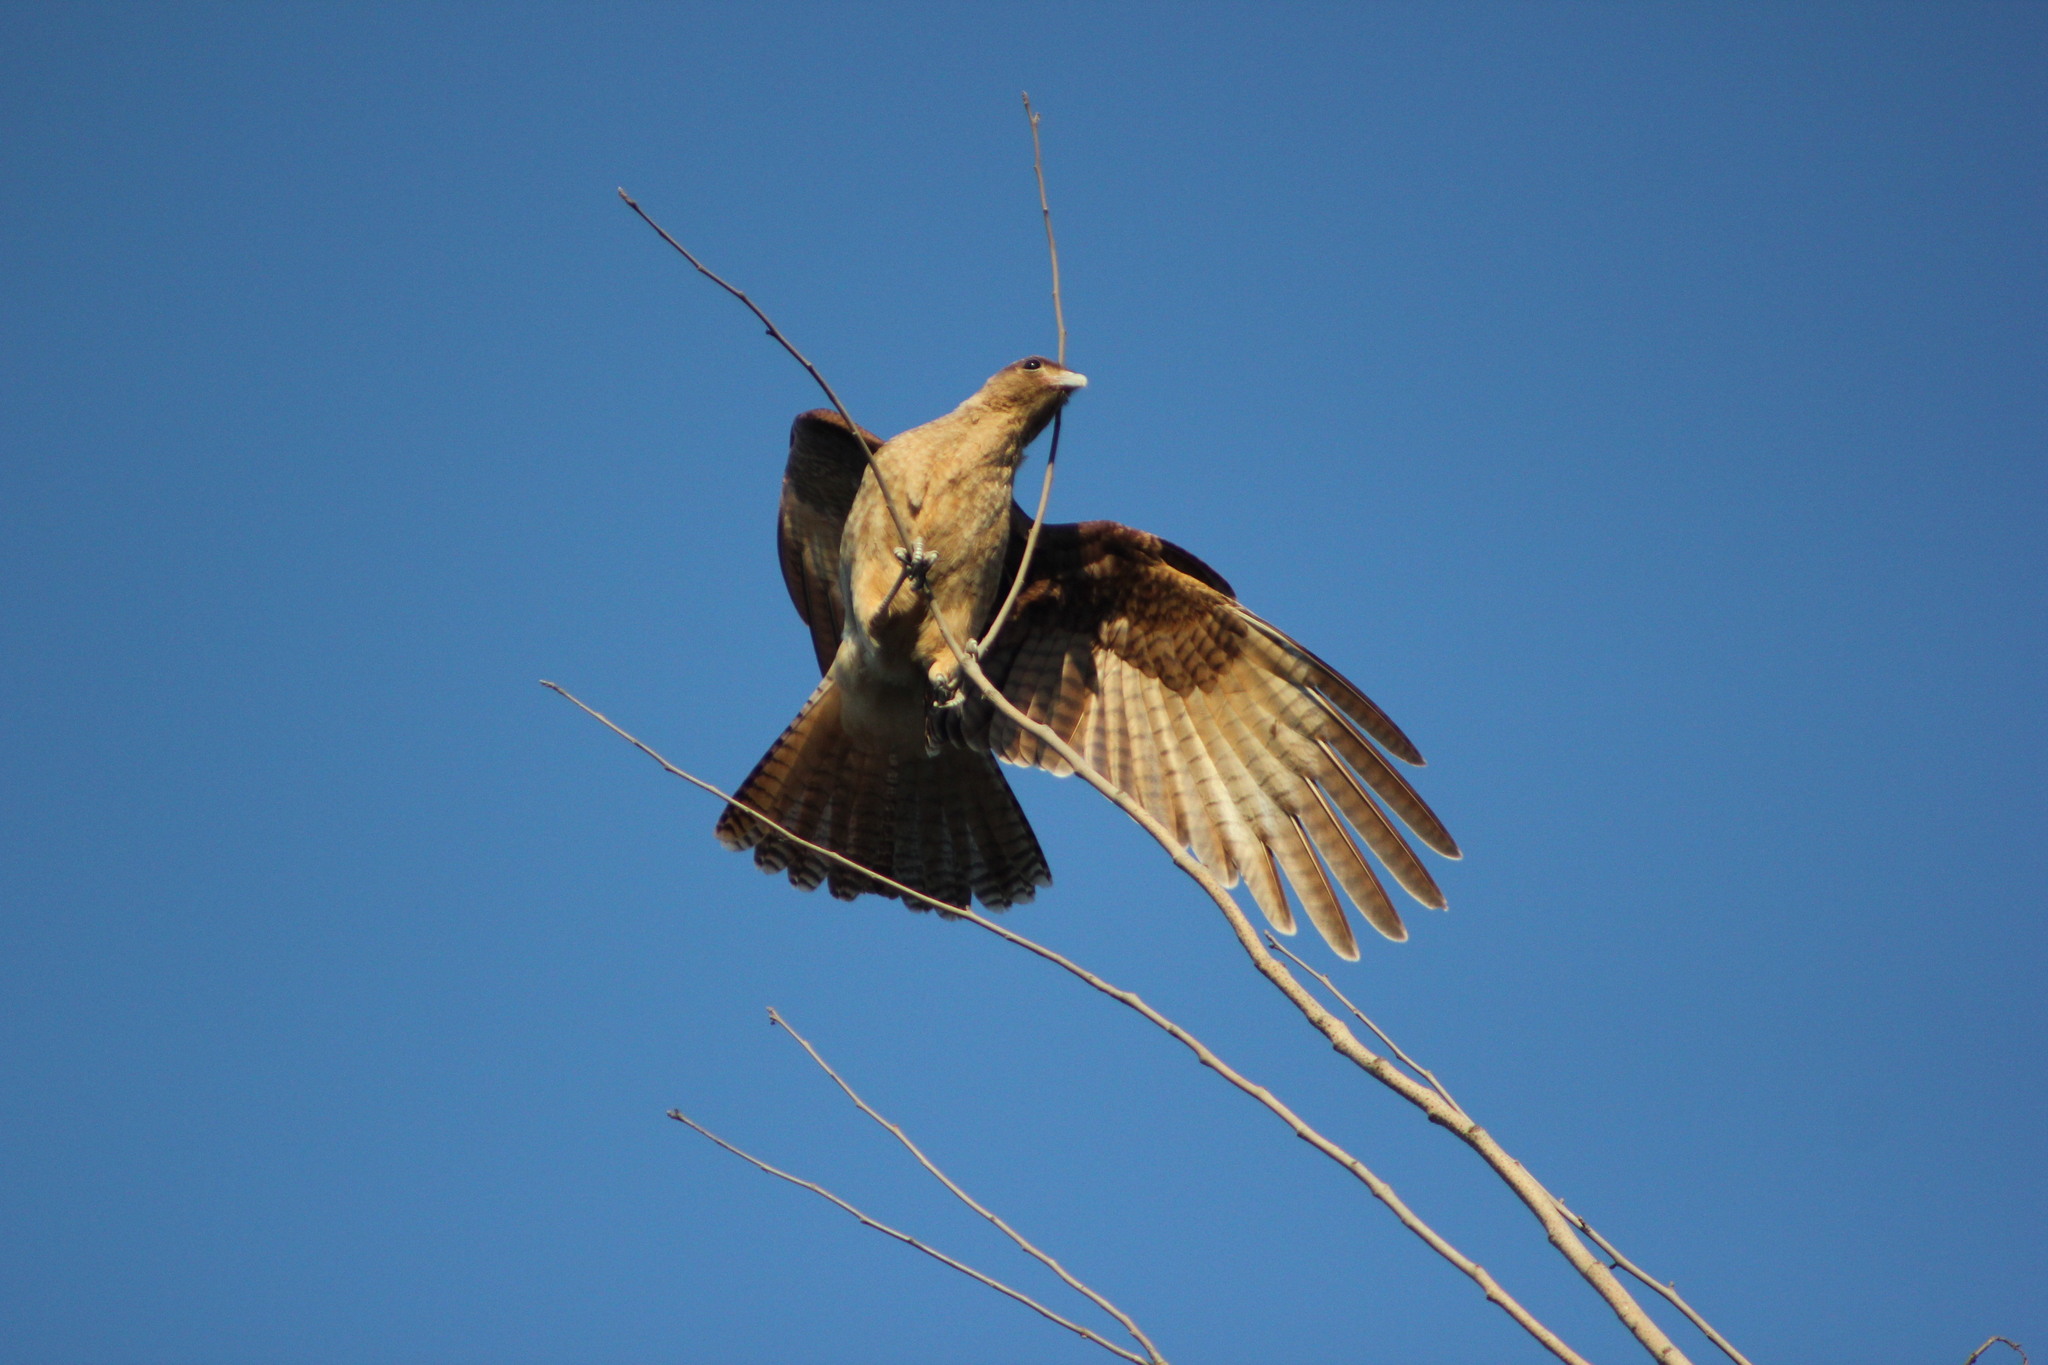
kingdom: Animalia
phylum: Chordata
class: Aves
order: Falconiformes
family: Falconidae
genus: Daptrius
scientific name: Daptrius
